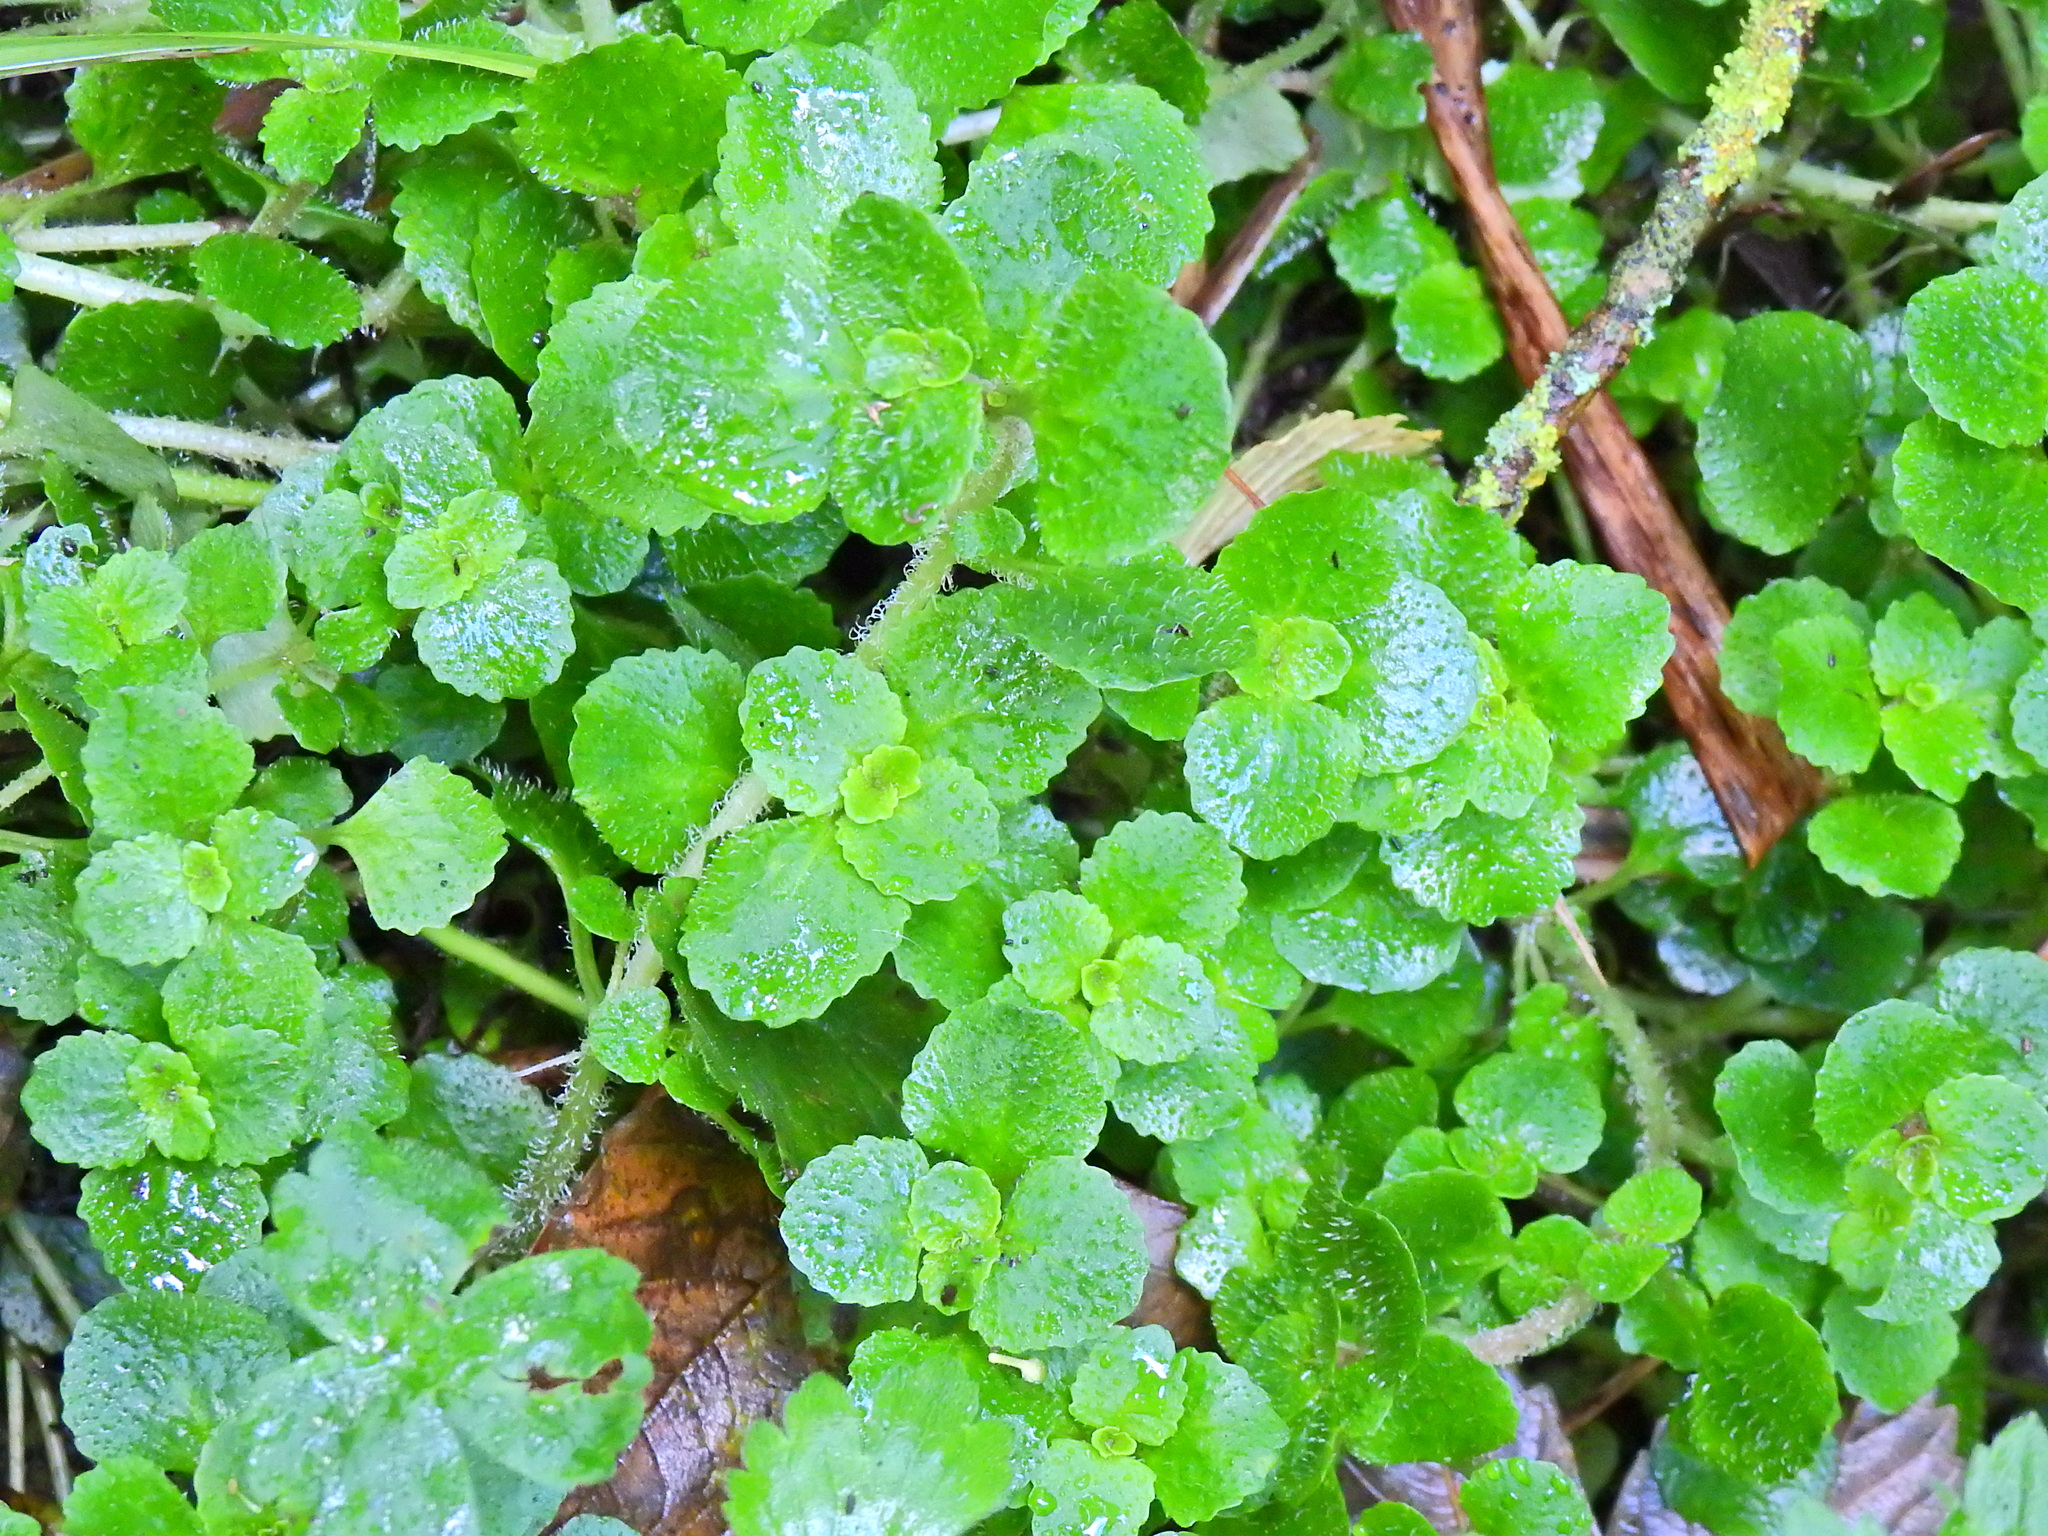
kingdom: Plantae
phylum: Tracheophyta
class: Magnoliopsida
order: Saxifragales
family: Saxifragaceae
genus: Chrysosplenium
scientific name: Chrysosplenium oppositifolium
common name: Opposite-leaved golden-saxifrage
